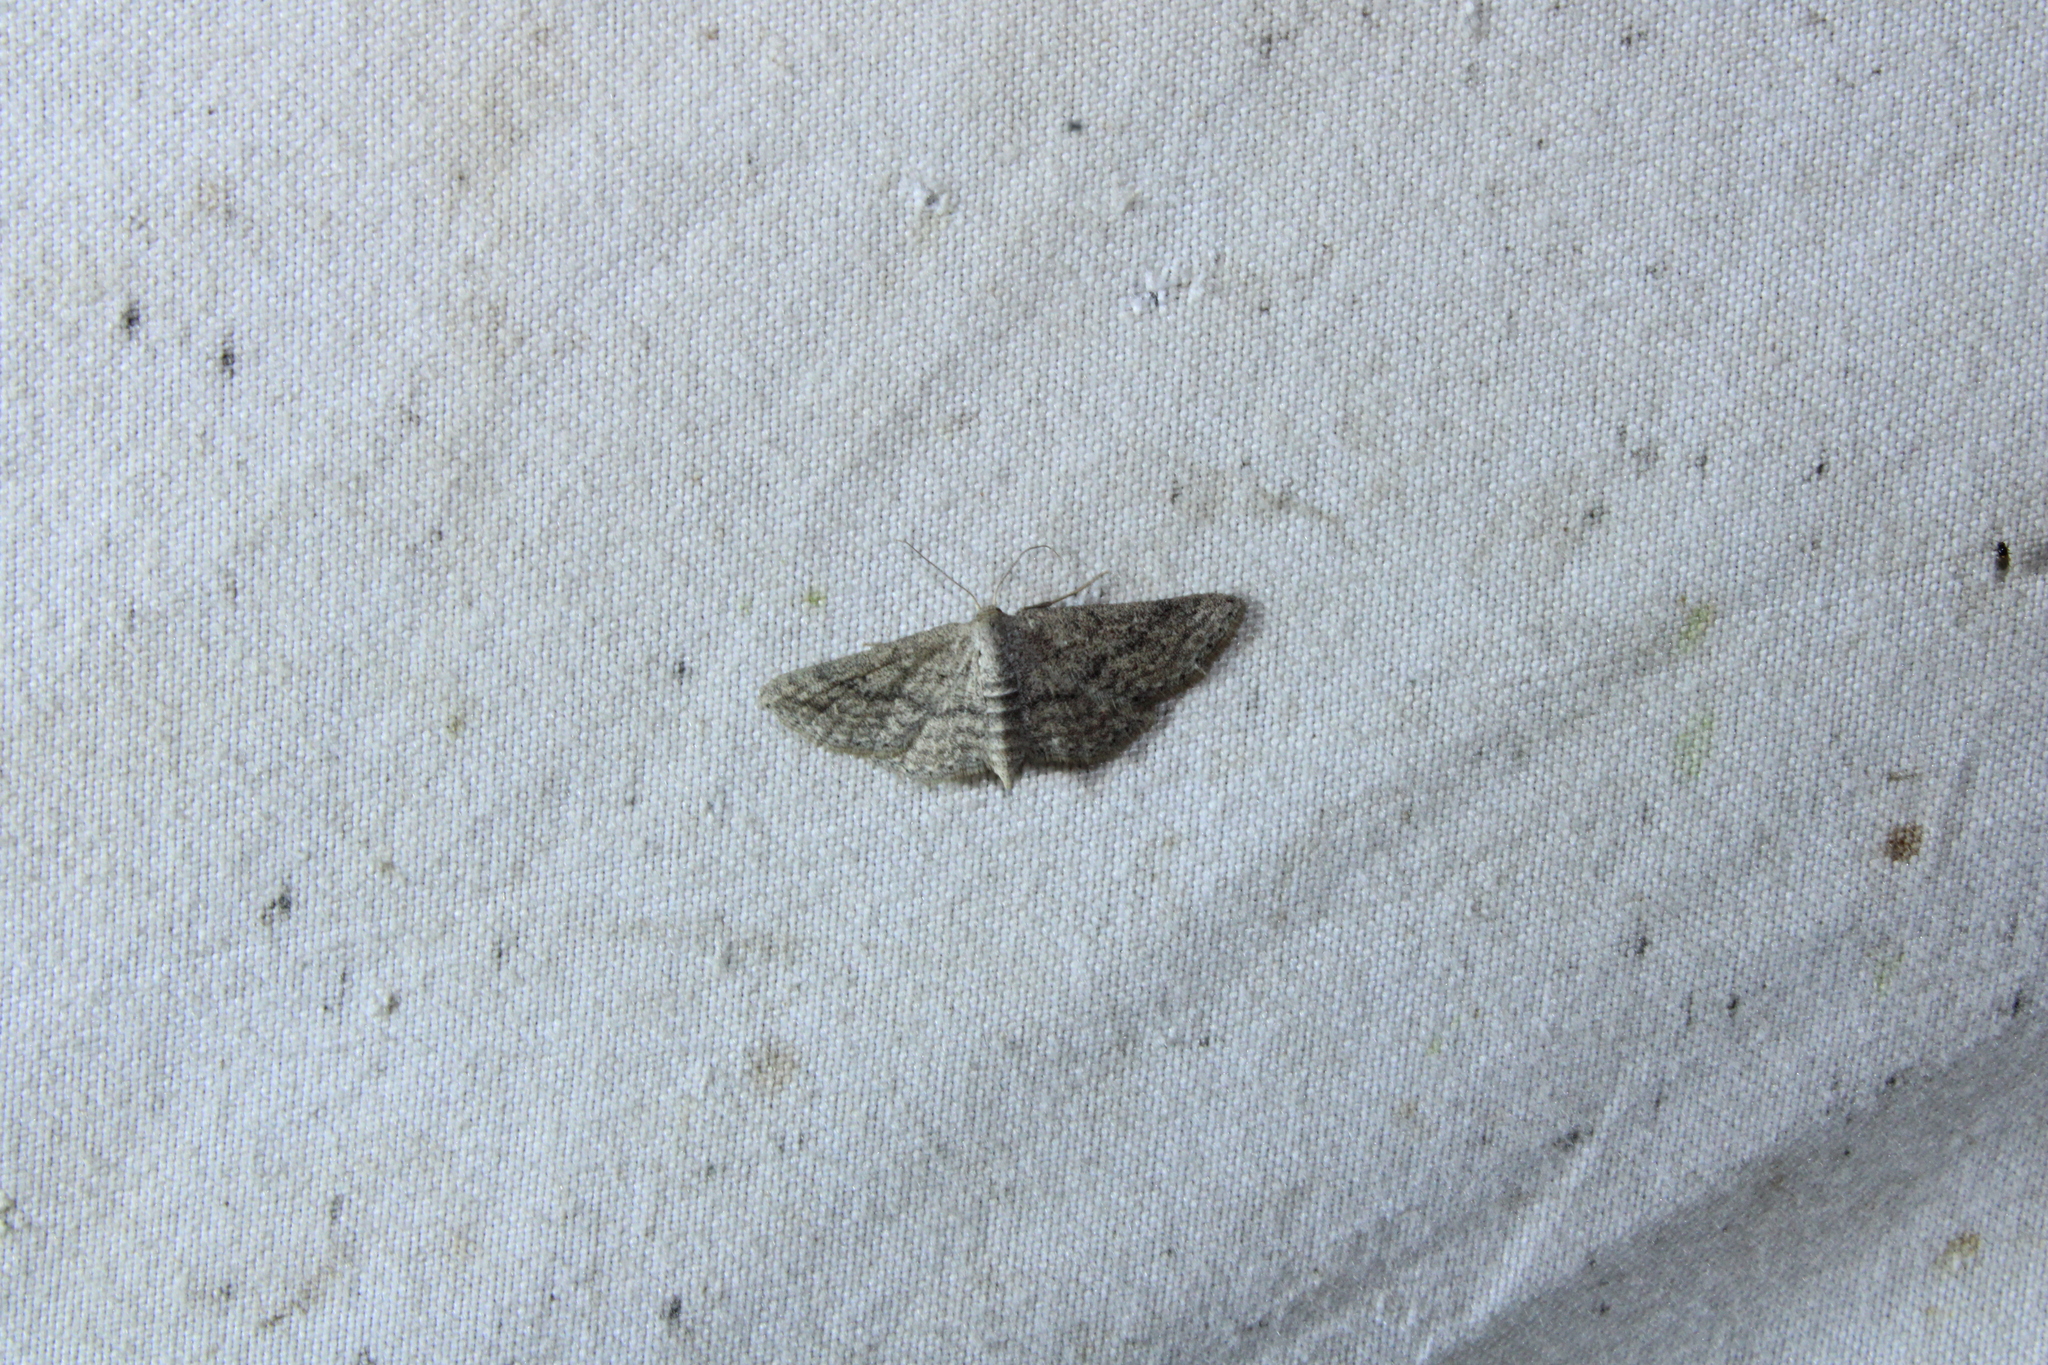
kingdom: Animalia
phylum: Arthropoda
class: Insecta
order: Lepidoptera
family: Geometridae
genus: Lobocleta
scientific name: Lobocleta ossularia
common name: Drab brown wave
